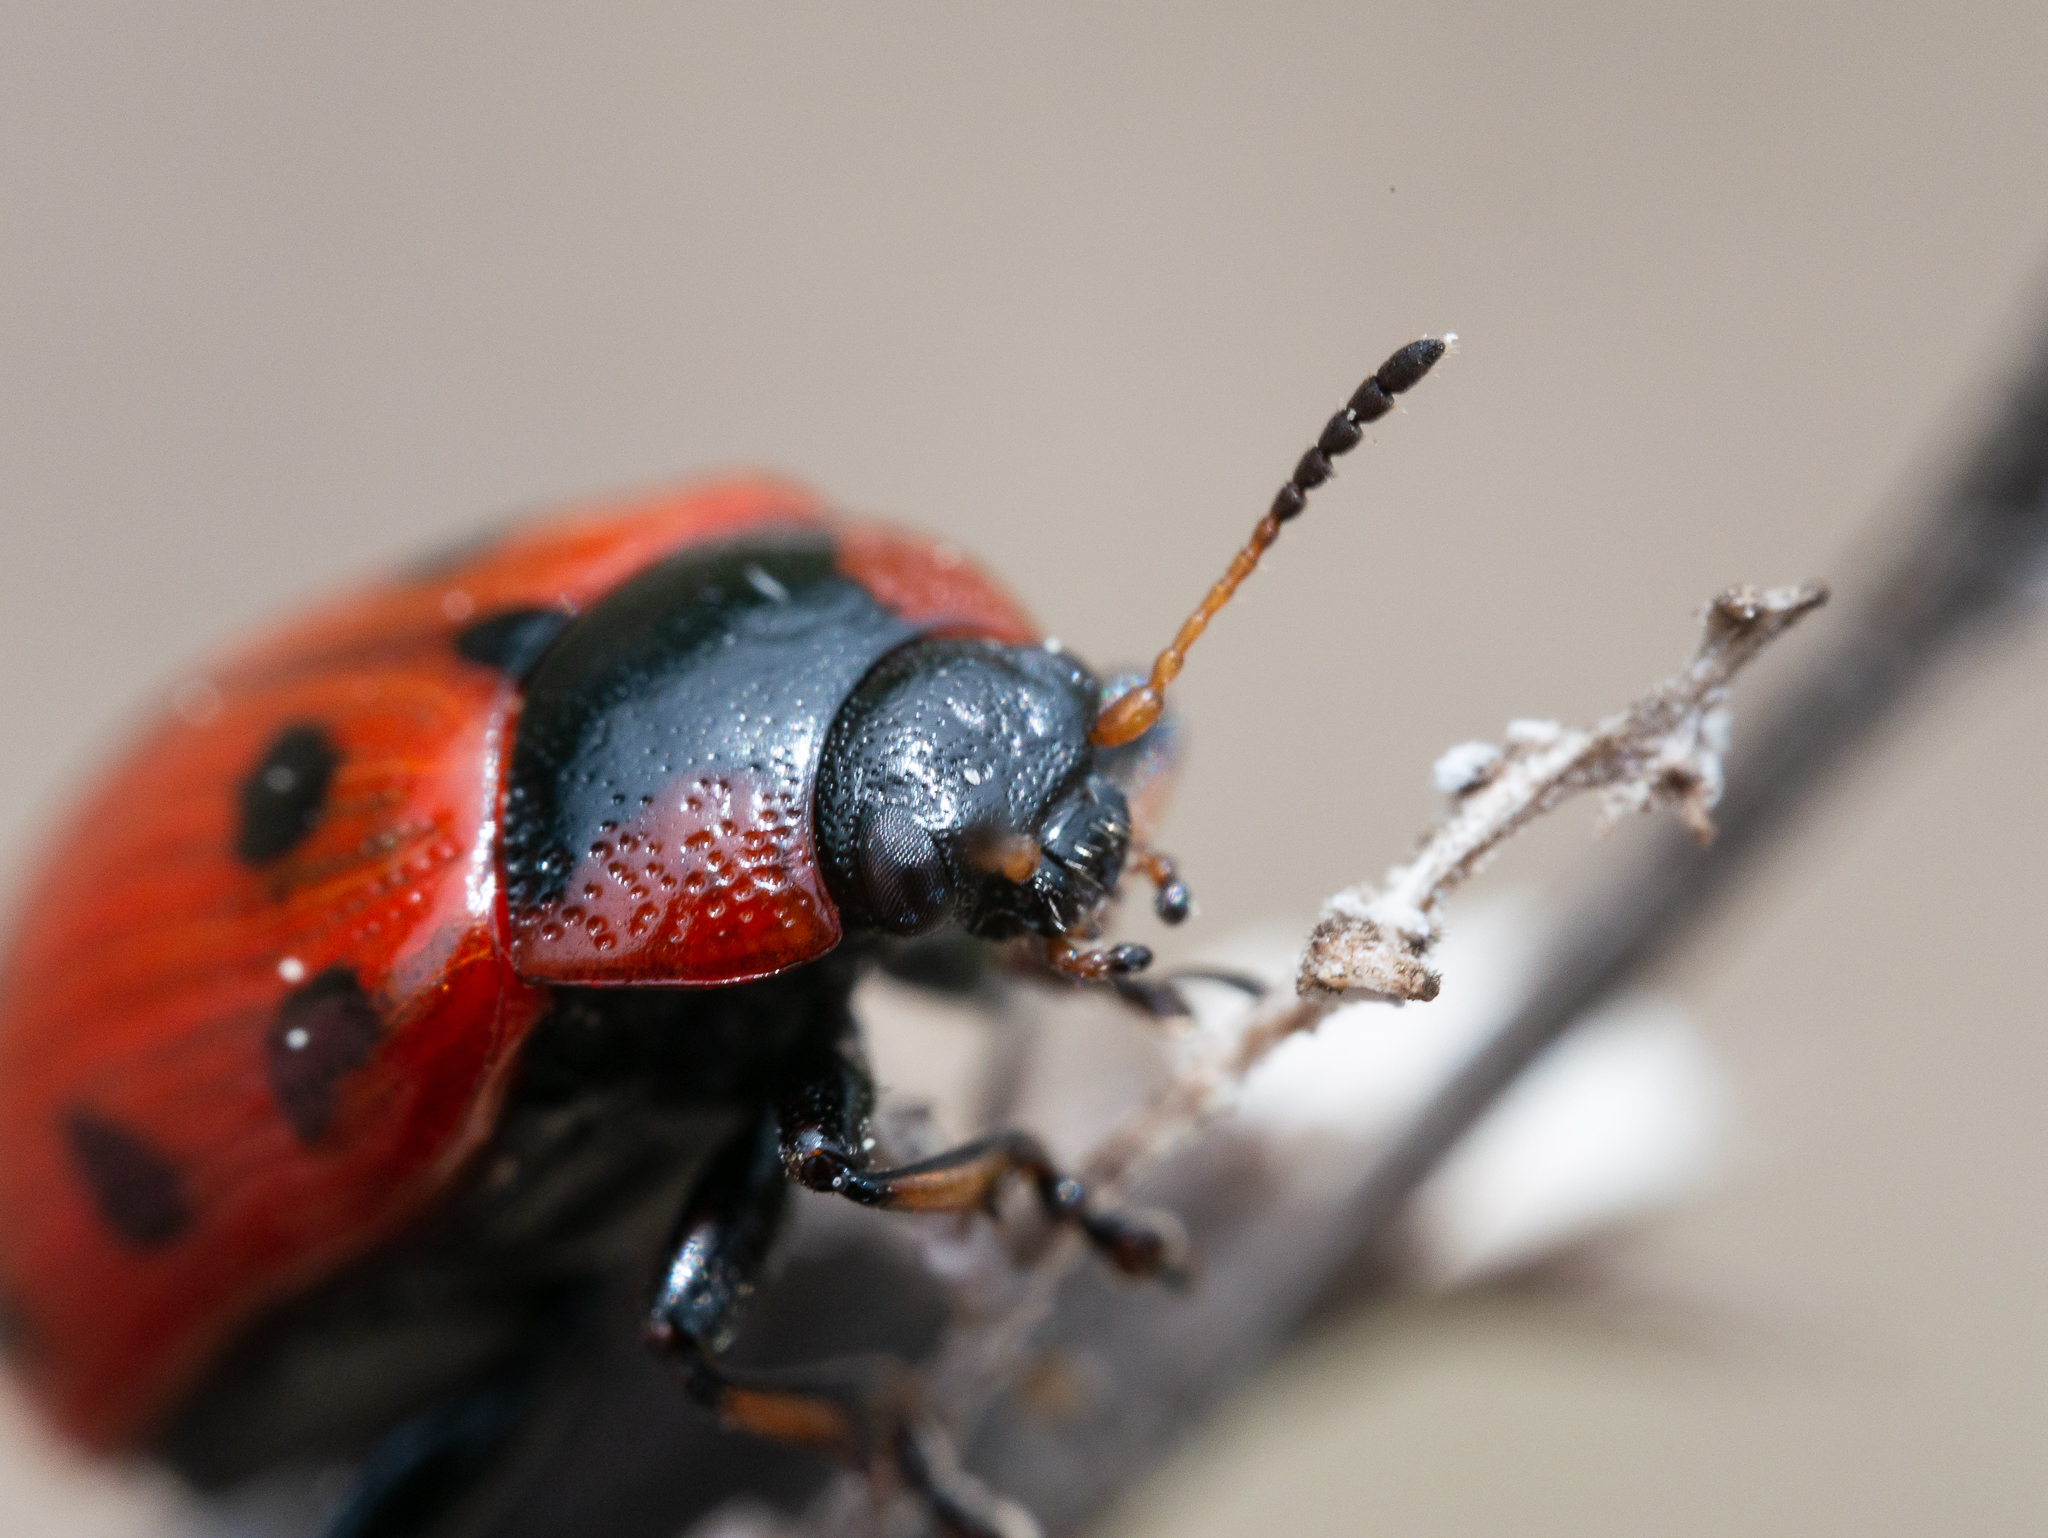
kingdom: Animalia
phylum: Arthropoda
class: Insecta
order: Coleoptera
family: Chrysomelidae
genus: Gonioctena
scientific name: Gonioctena linnaeana
